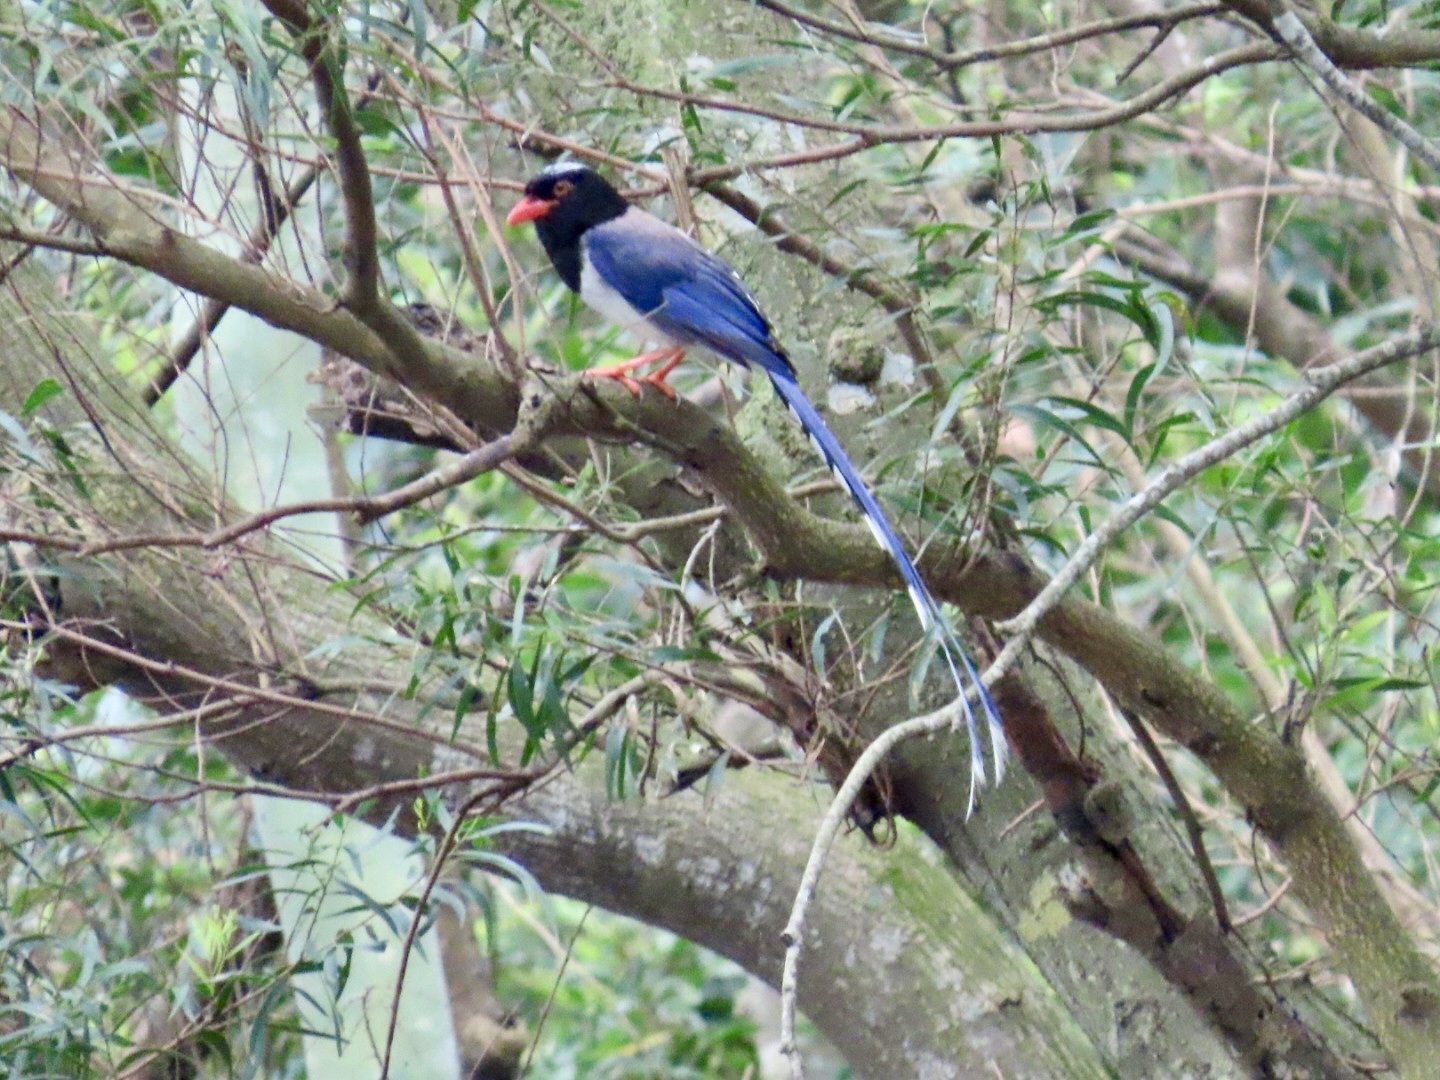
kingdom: Animalia
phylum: Chordata
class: Aves
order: Passeriformes
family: Corvidae
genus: Urocissa
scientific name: Urocissa erythroryncha
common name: Red-billed blue magpie
